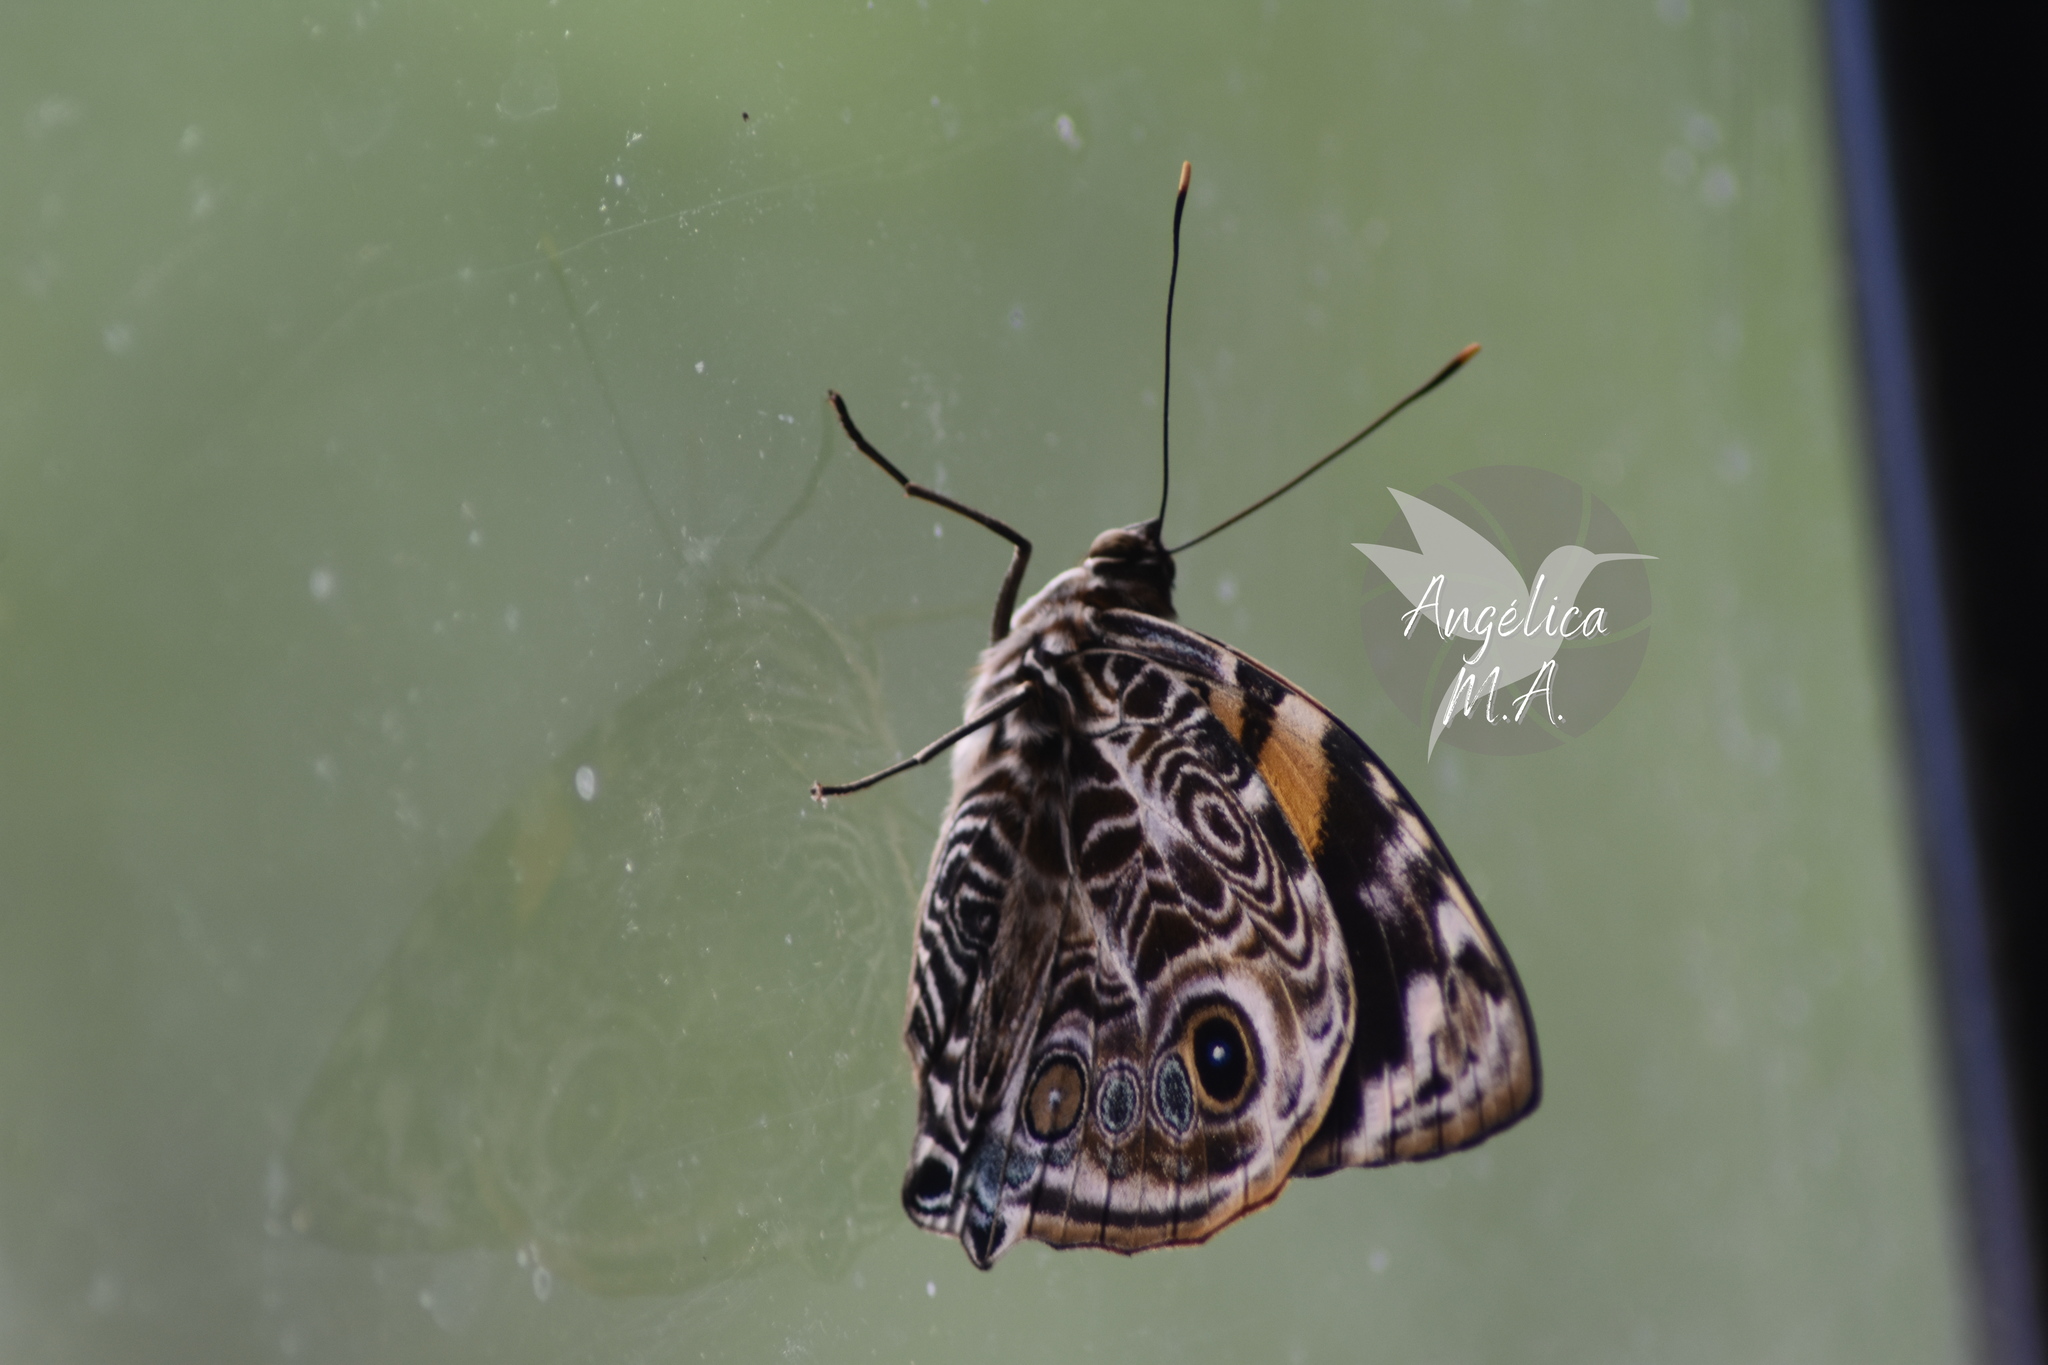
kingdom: Animalia
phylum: Arthropoda
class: Insecta
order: Lepidoptera
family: Nymphalidae
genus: Smyrna
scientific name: Smyrna blomfildia
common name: Blomfild's beauty
